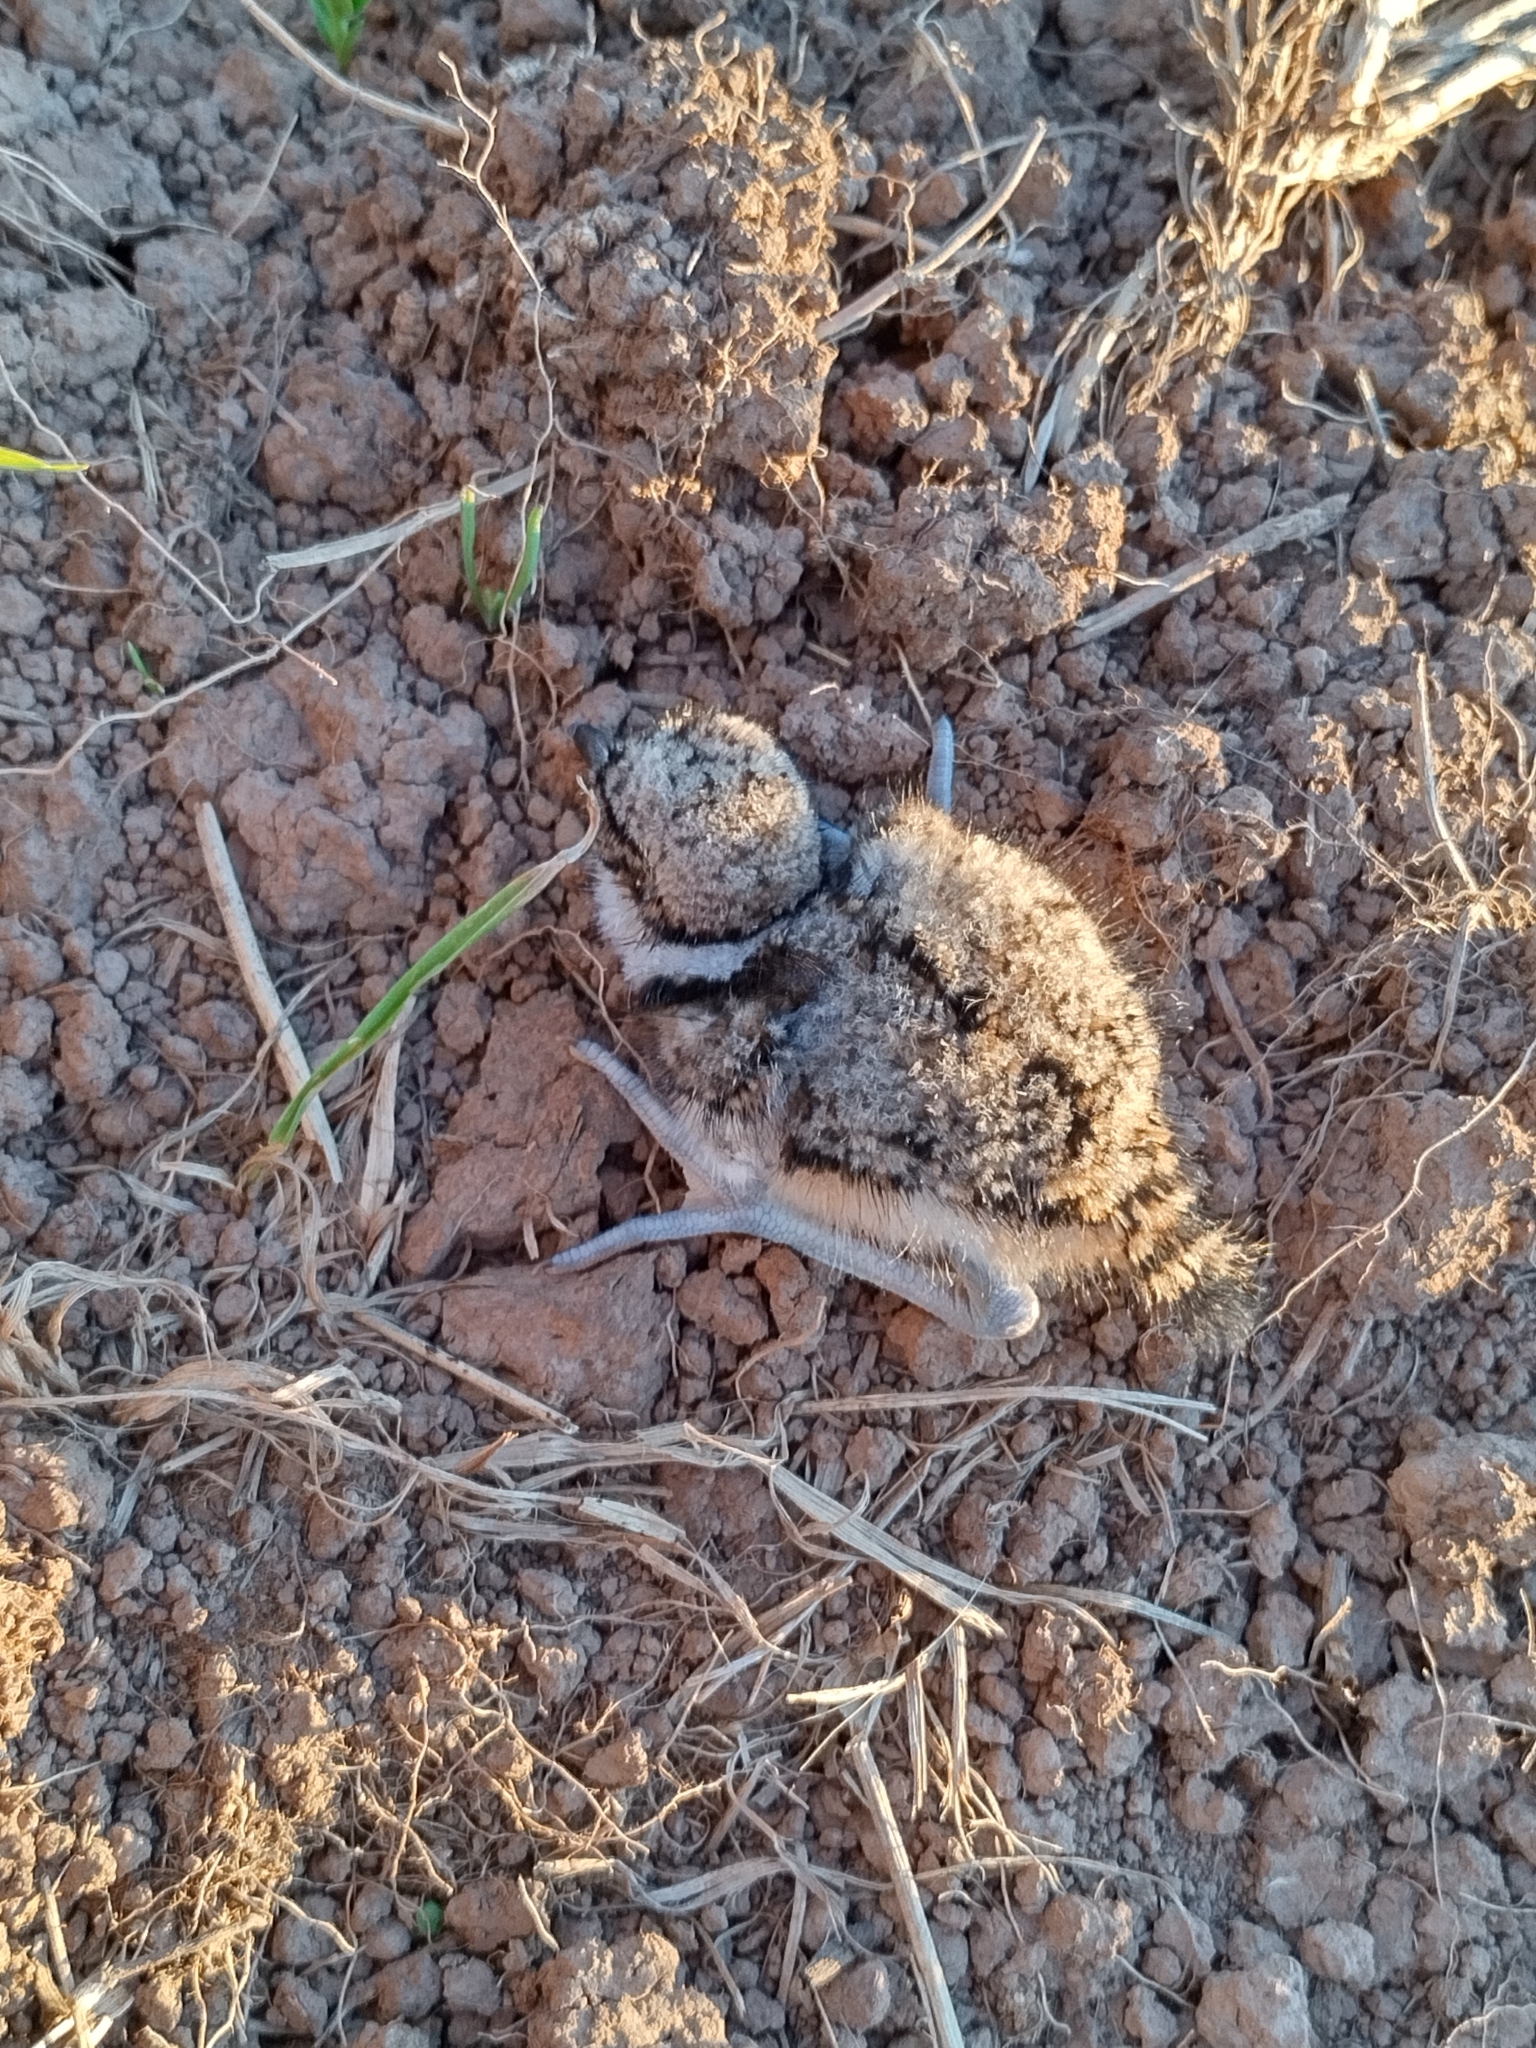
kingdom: Animalia
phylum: Chordata
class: Aves
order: Charadriiformes
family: Charadriidae
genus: Charadrius
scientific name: Charadrius vociferus
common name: Killdeer
